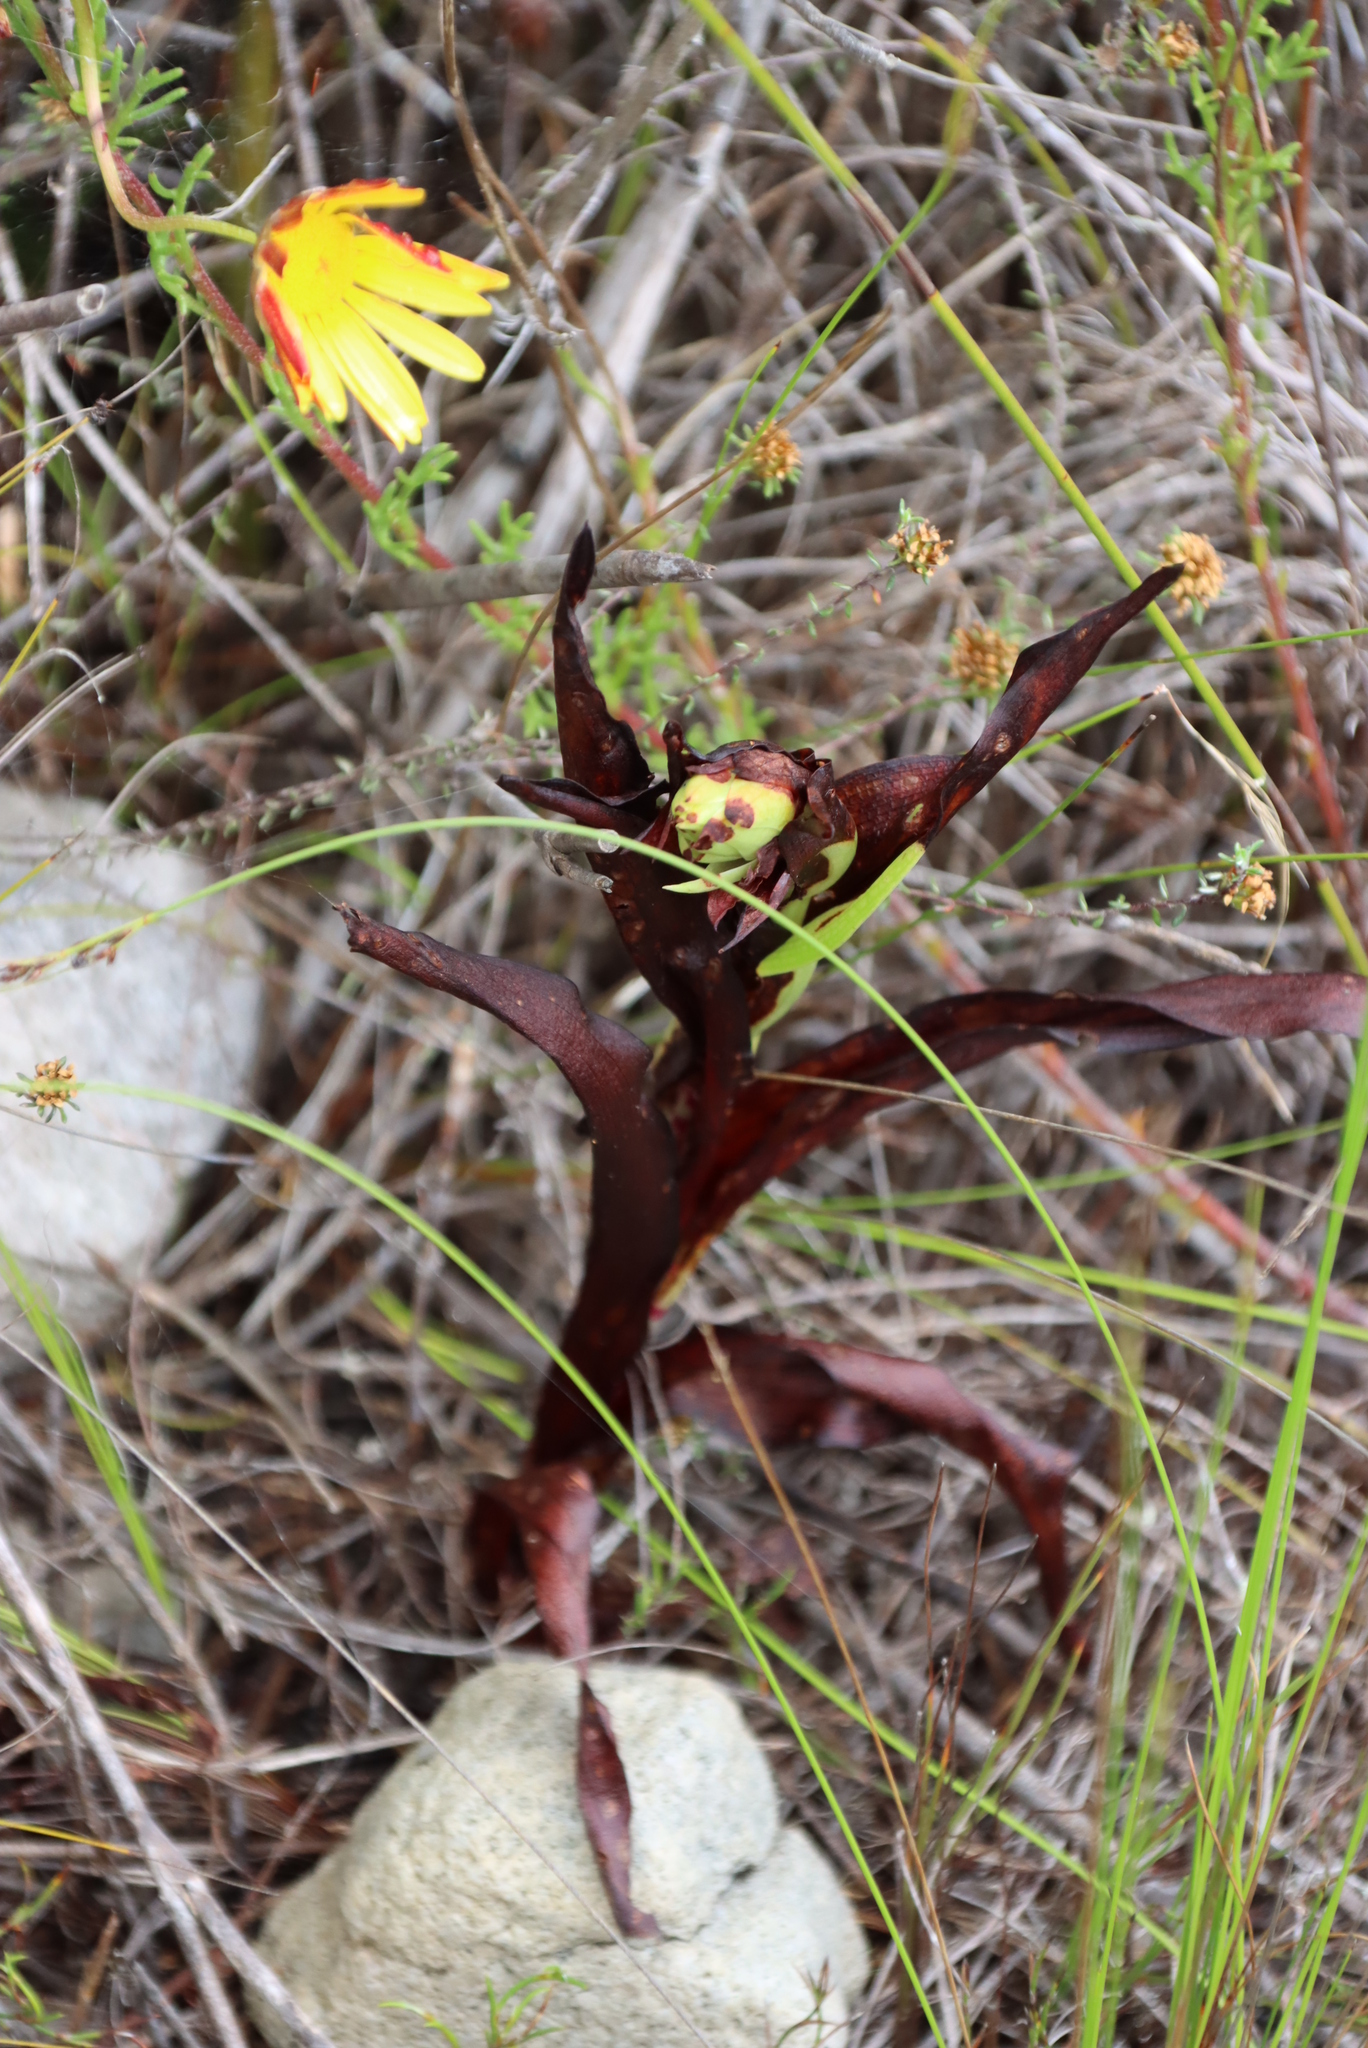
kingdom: Plantae
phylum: Tracheophyta
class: Liliopsida
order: Asparagales
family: Orchidaceae
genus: Disa
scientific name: Disa cornuta
